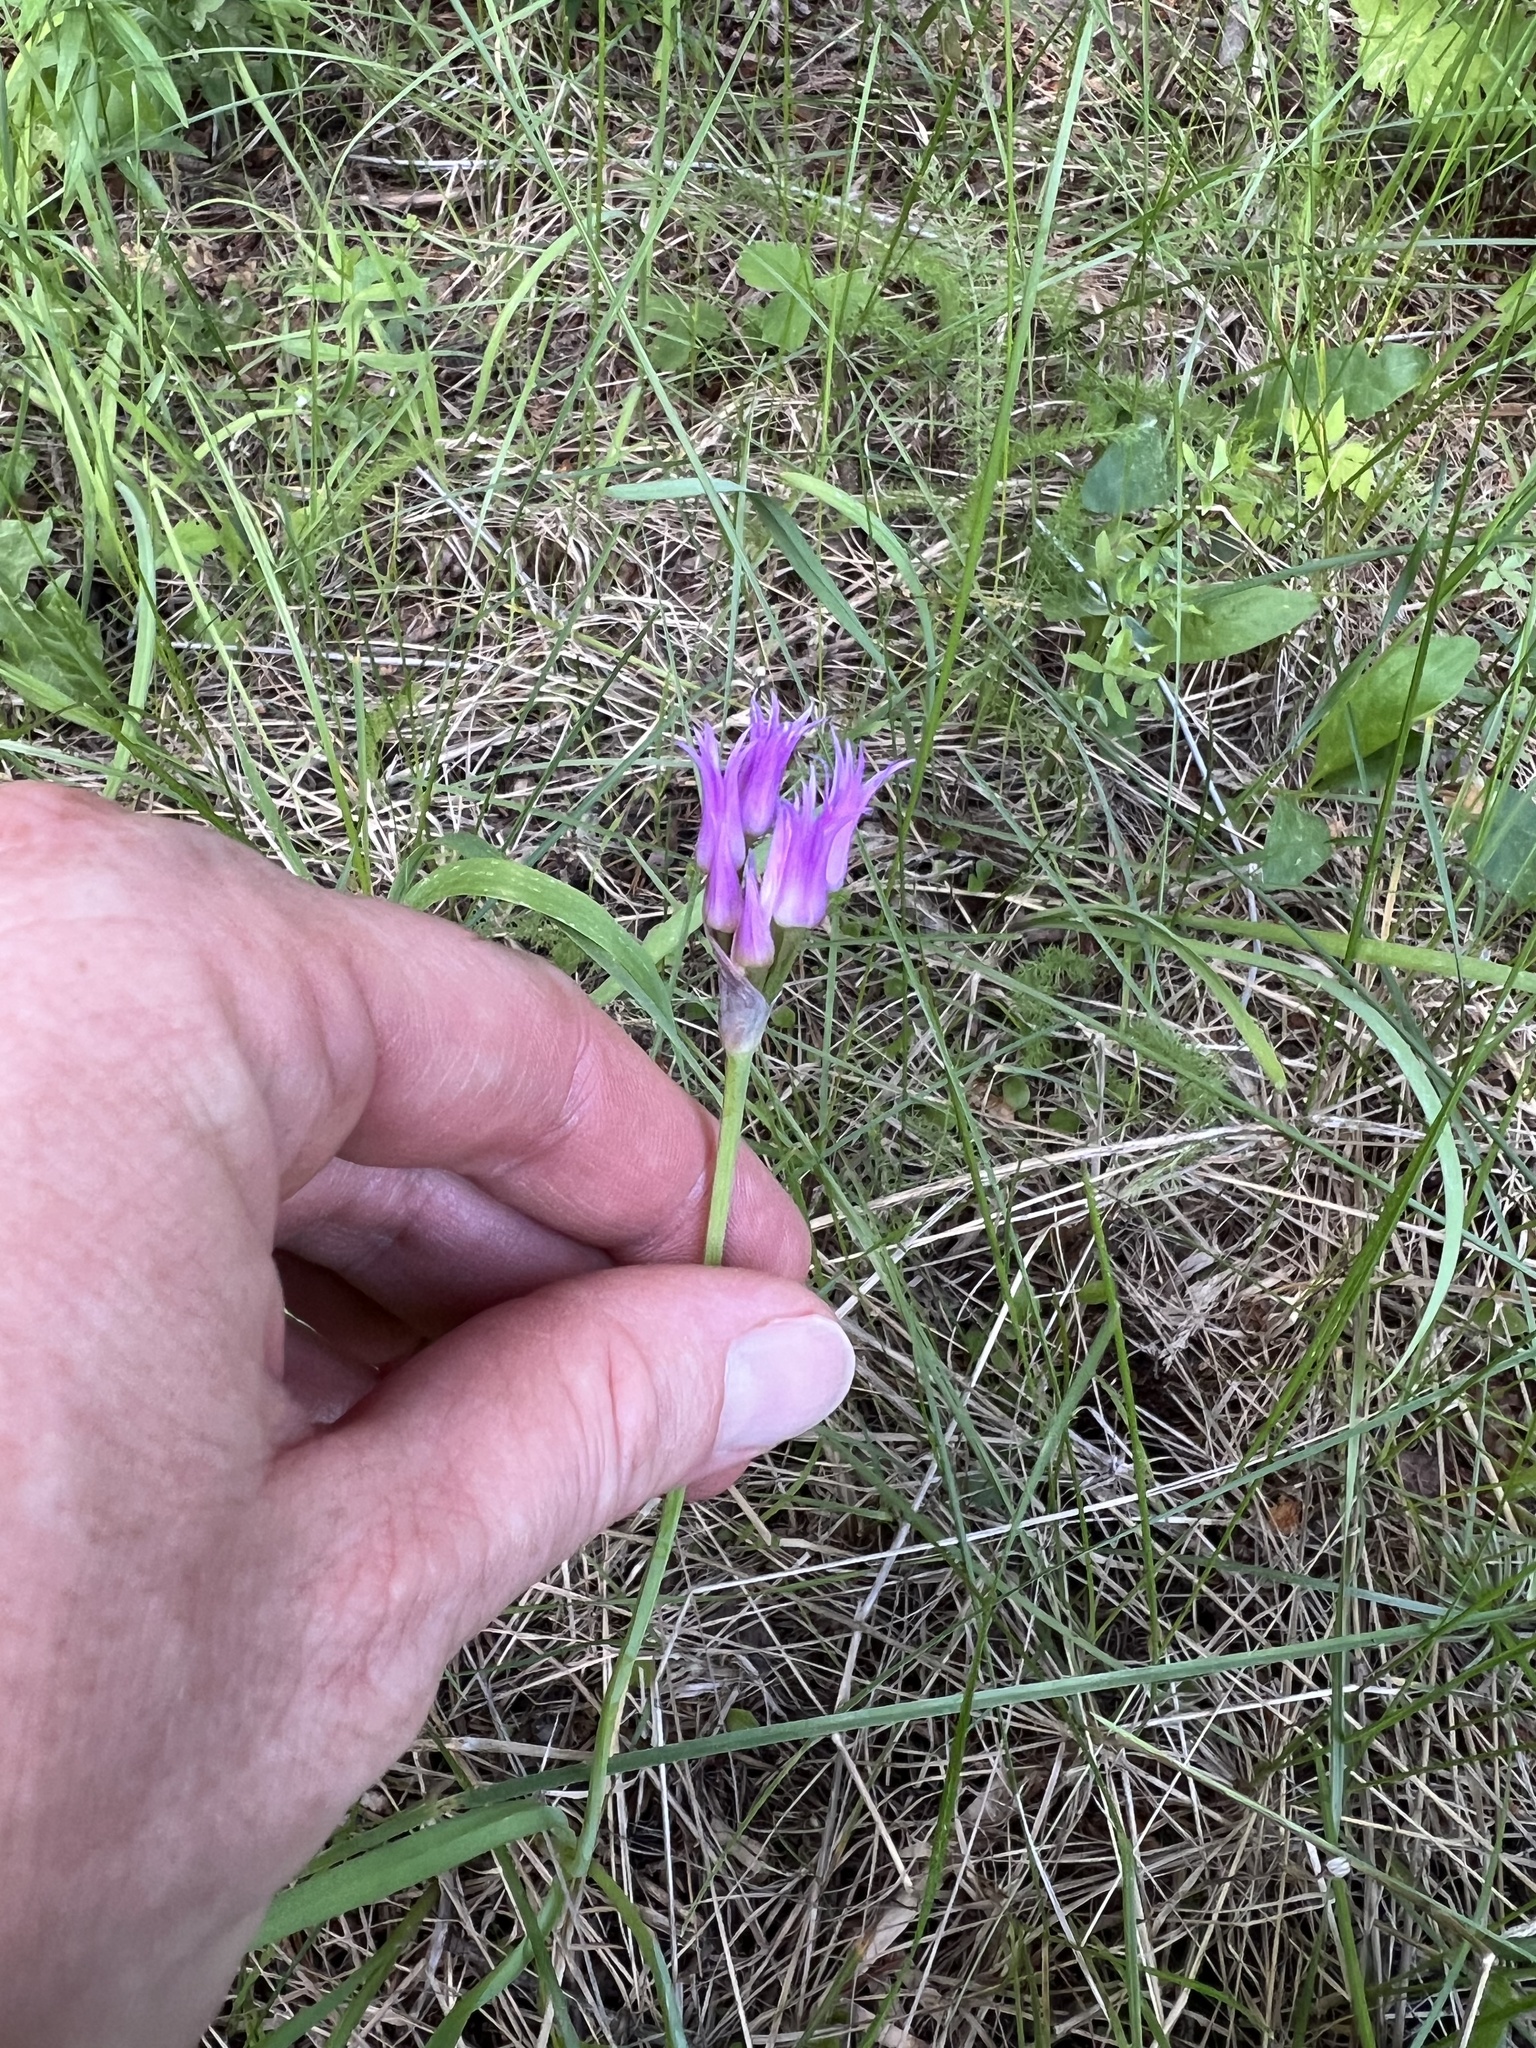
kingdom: Plantae
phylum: Tracheophyta
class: Liliopsida
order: Asparagales
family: Amaryllidaceae
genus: Allium
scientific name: Allium brevistylum
